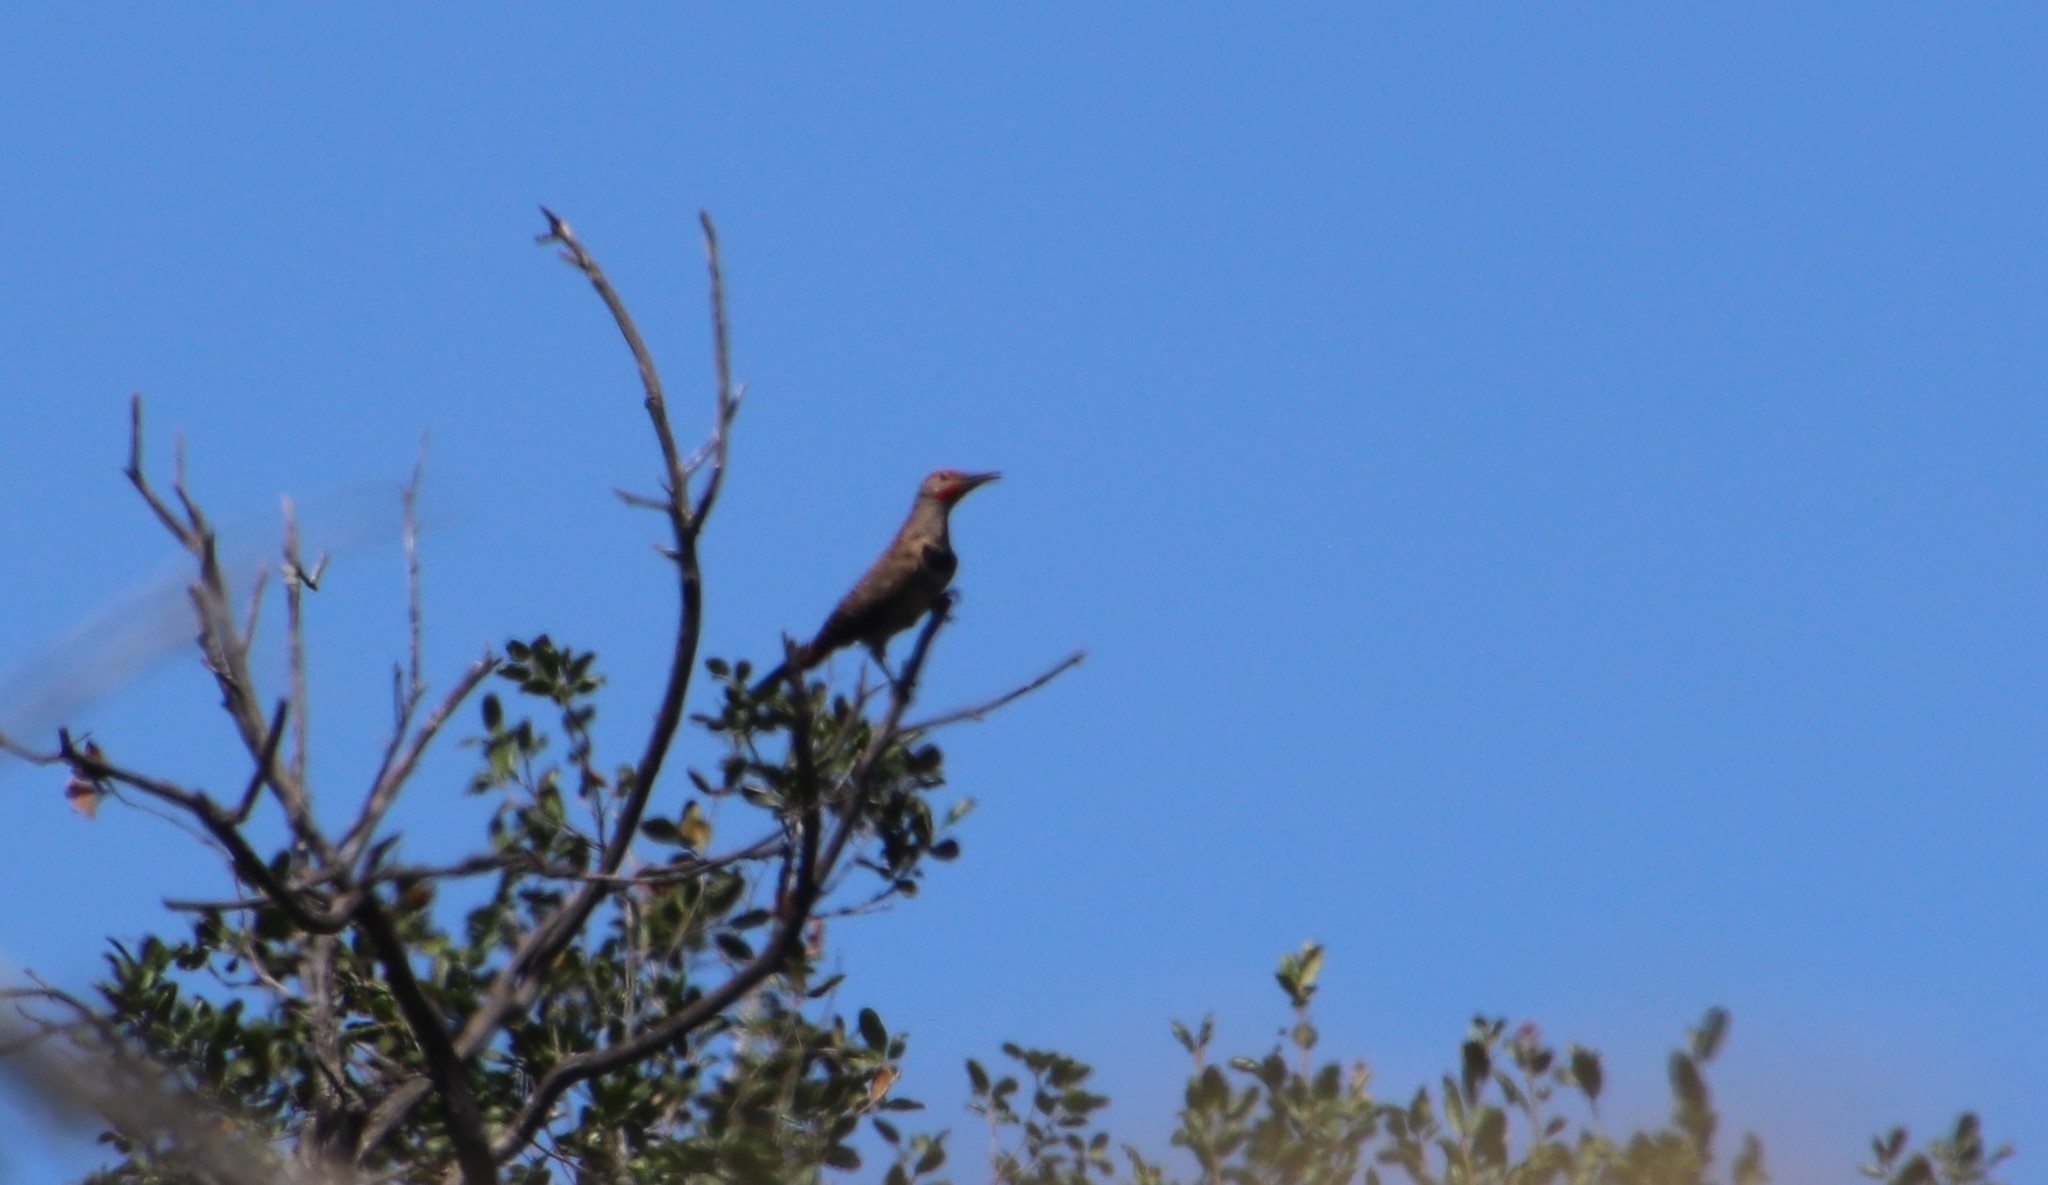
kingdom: Animalia
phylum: Chordata
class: Aves
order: Piciformes
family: Picidae
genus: Colaptes
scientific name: Colaptes auratus
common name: Northern flicker
